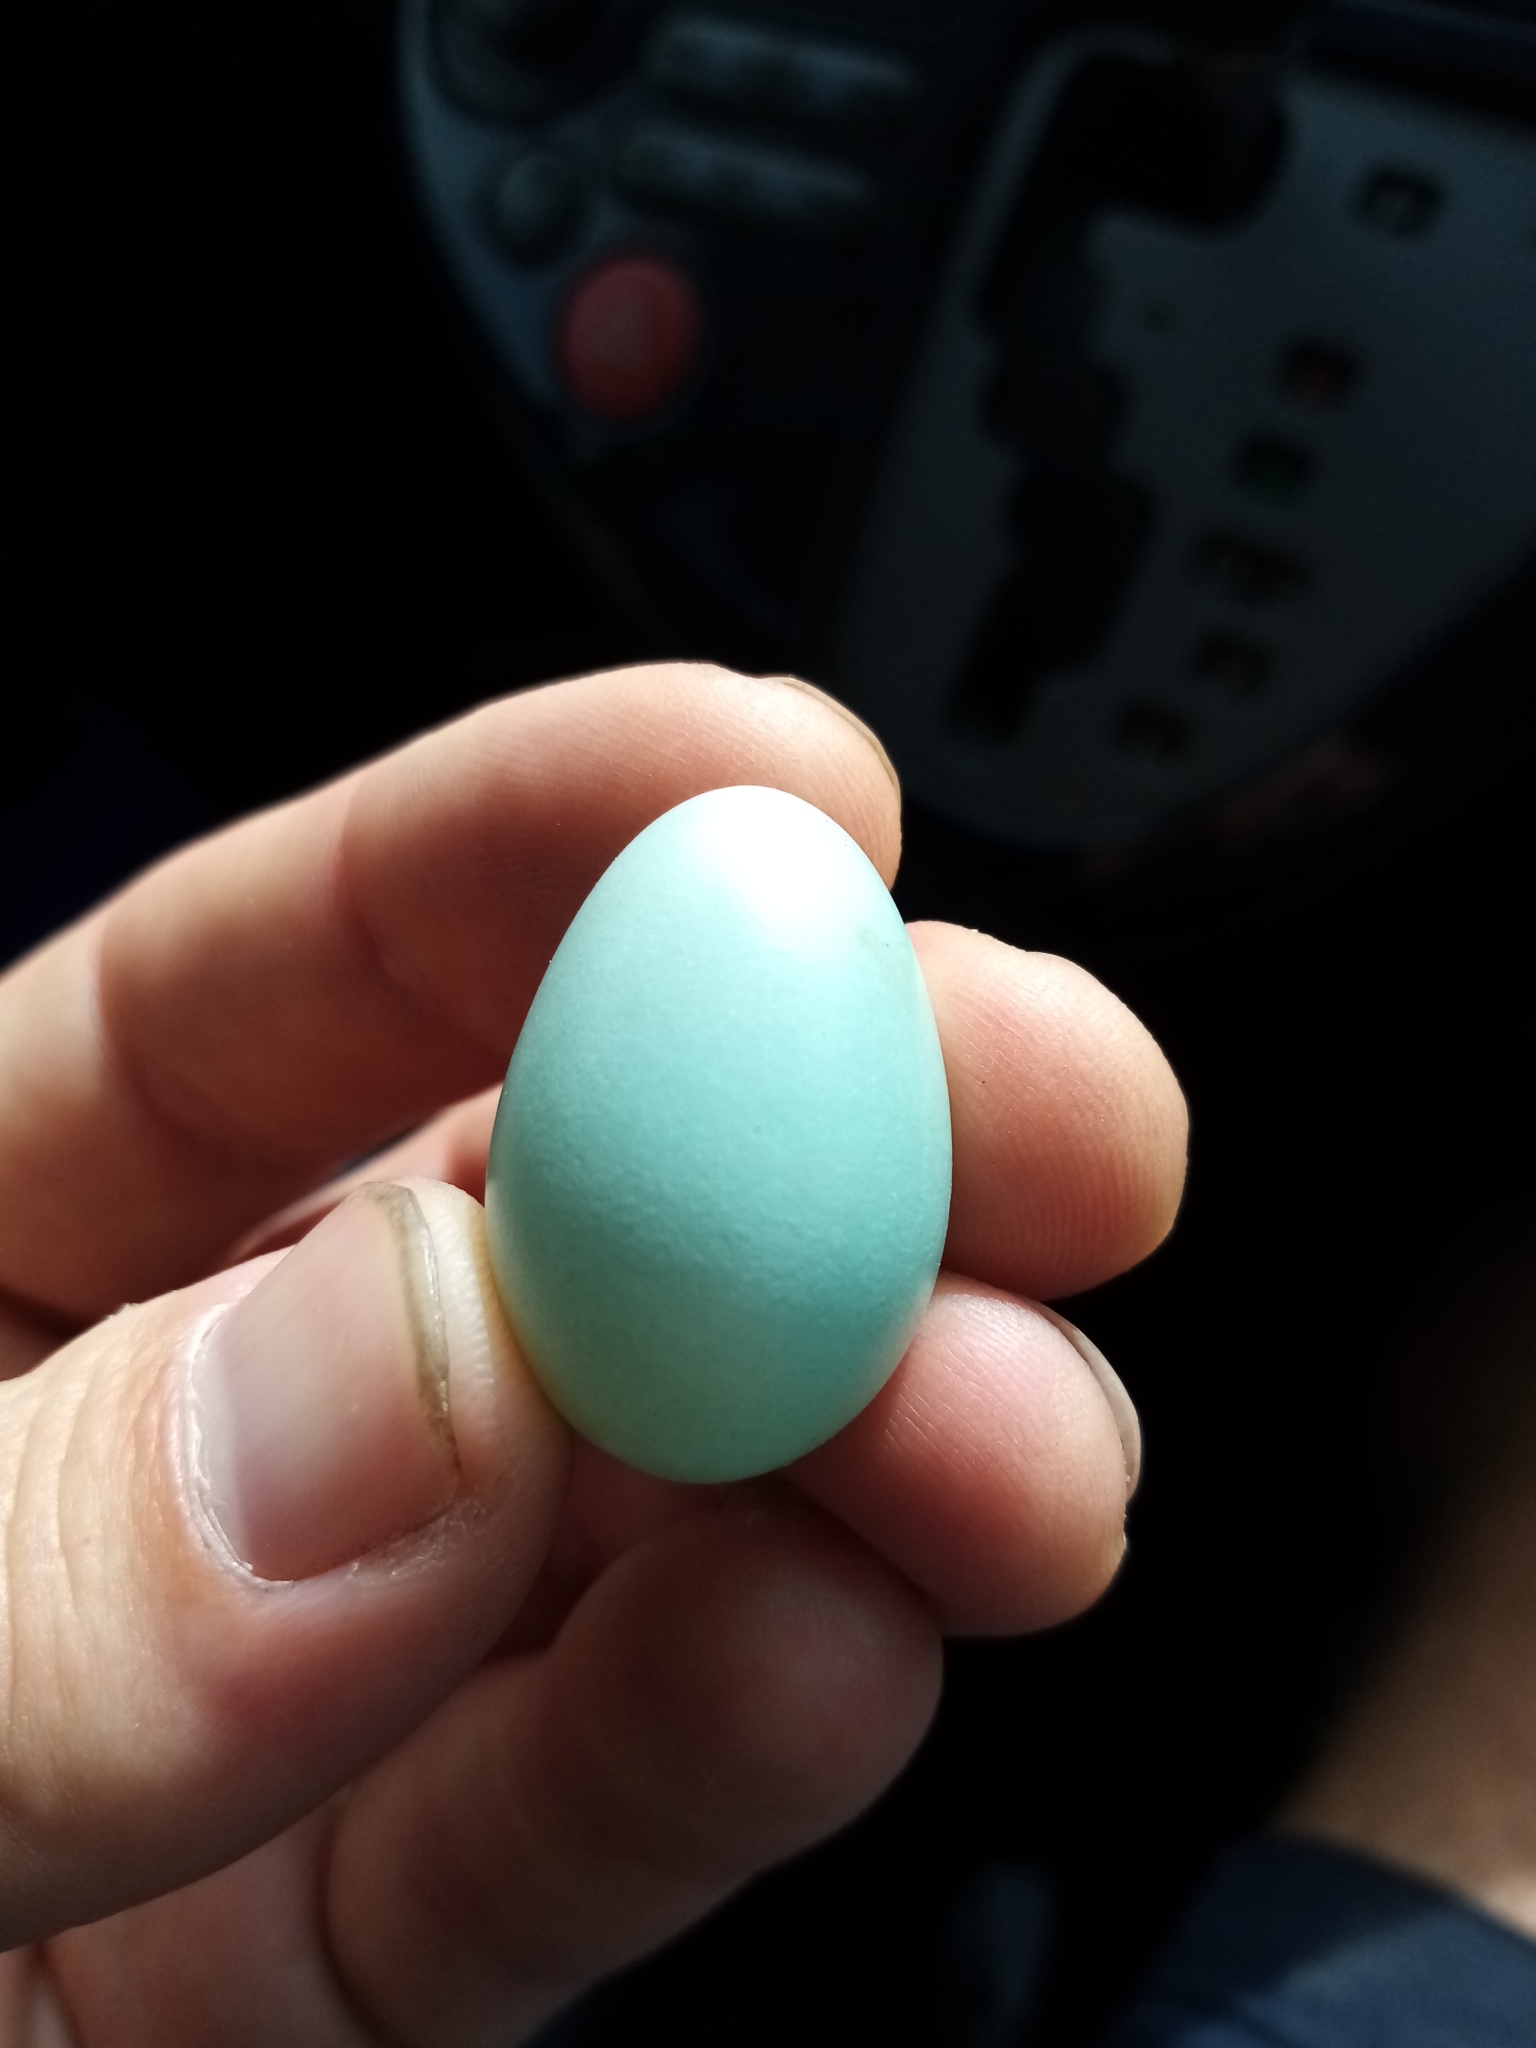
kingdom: Animalia
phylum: Chordata
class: Aves
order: Passeriformes
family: Sturnidae
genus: Sturnus
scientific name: Sturnus vulgaris
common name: Common starling
